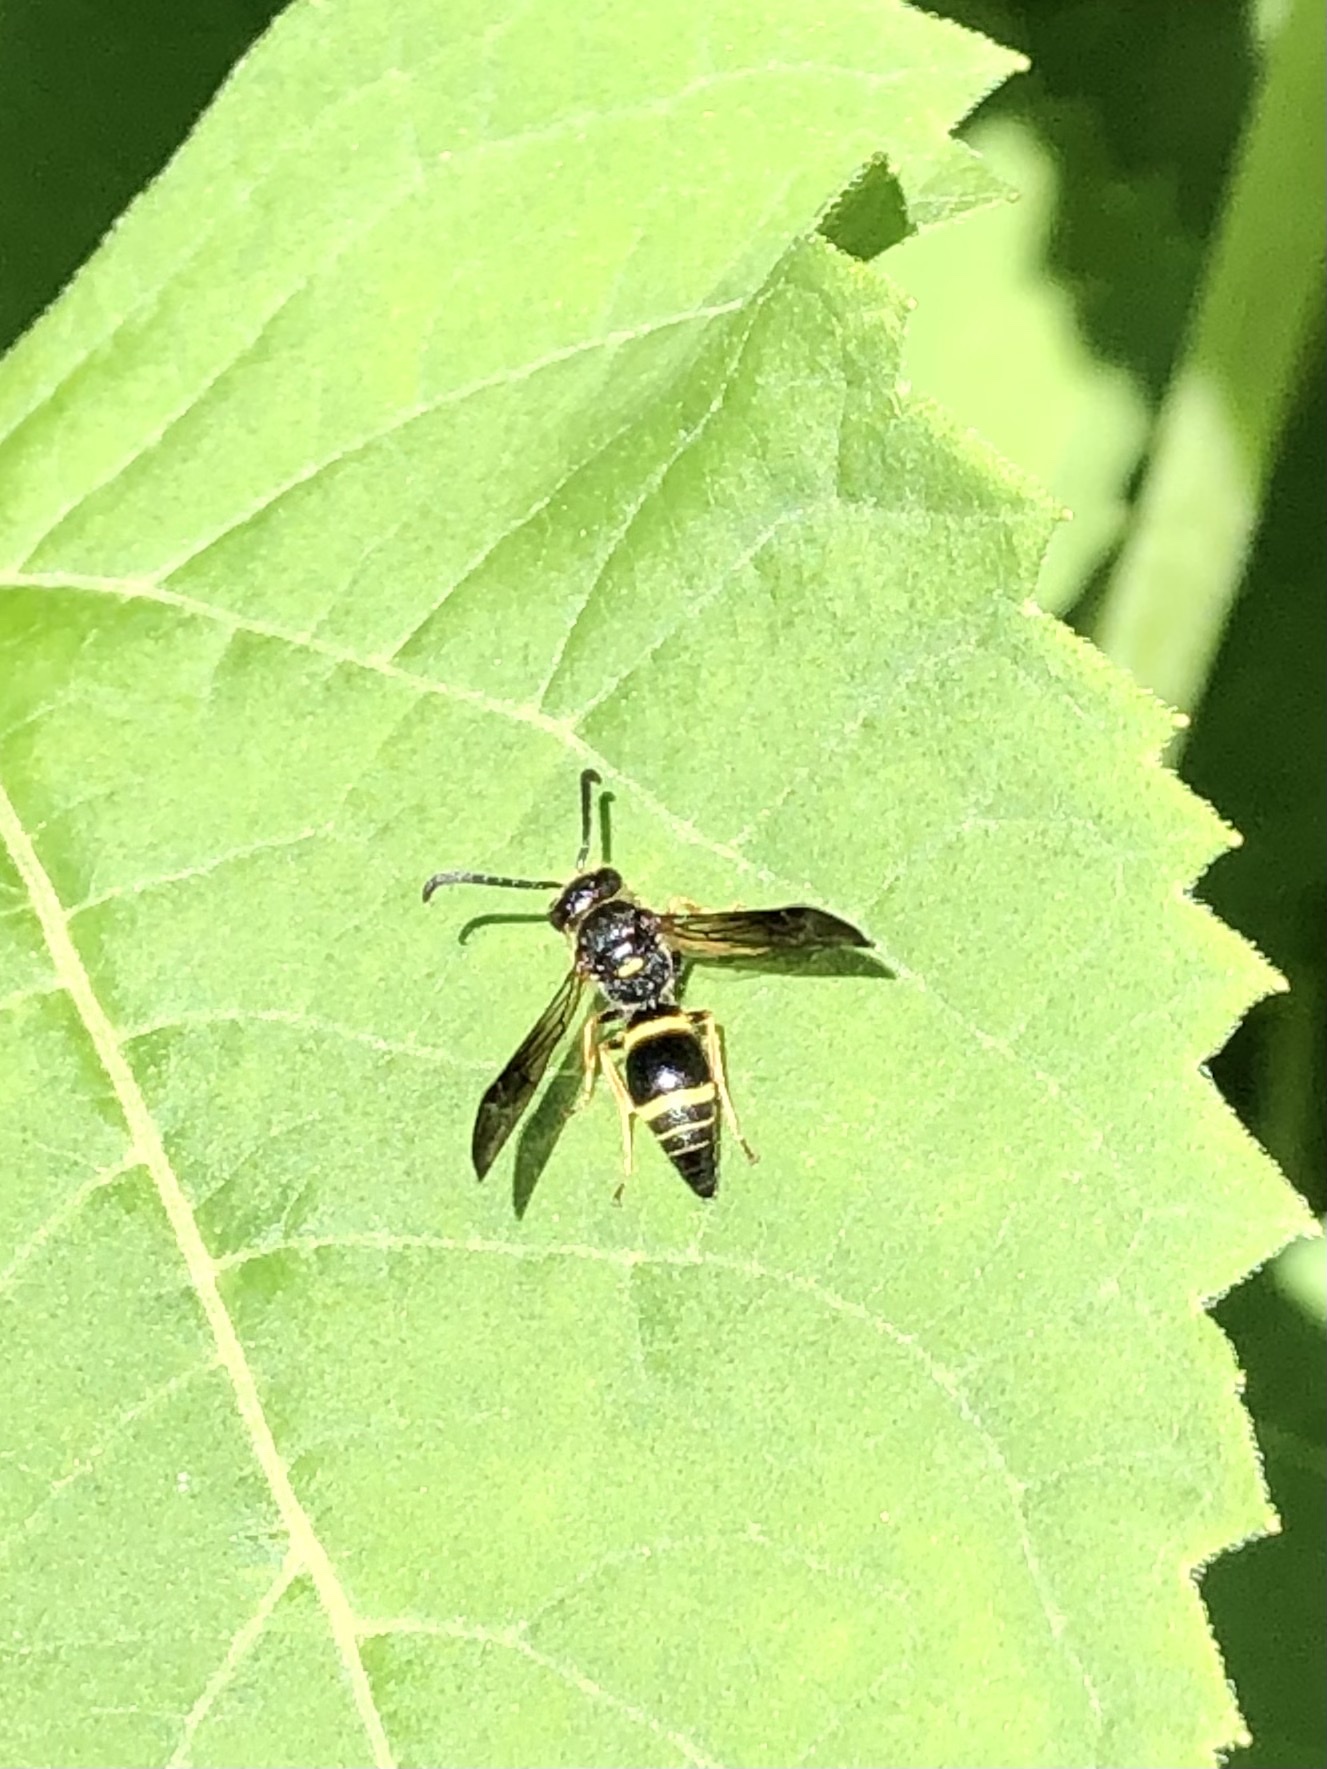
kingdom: Animalia
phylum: Arthropoda
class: Insecta
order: Hymenoptera
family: Vespidae
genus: Ancistrocerus
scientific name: Ancistrocerus unifasciatus
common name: One-banded mason wasp
